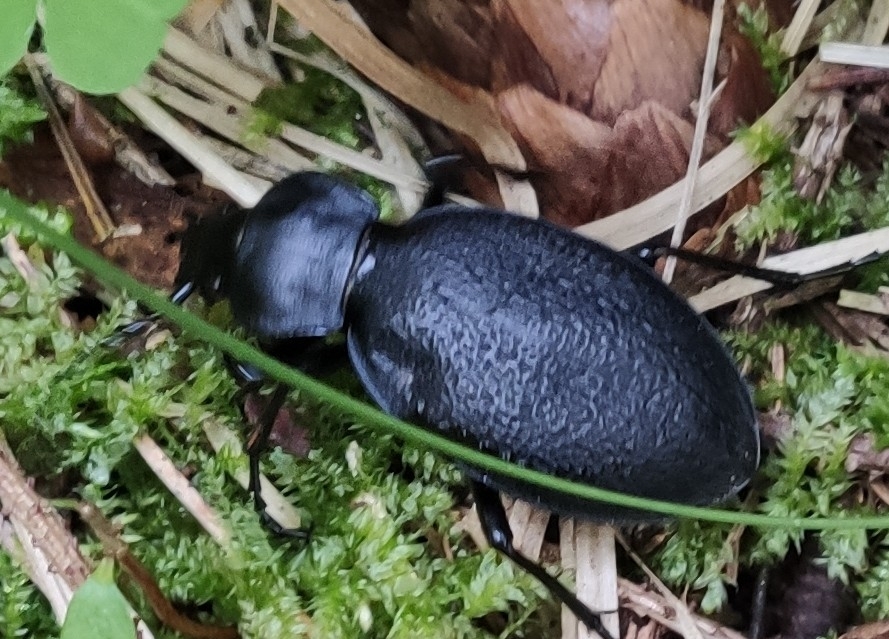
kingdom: Animalia
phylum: Arthropoda
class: Insecta
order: Coleoptera
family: Carabidae
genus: Carabus
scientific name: Carabus coriaceus
